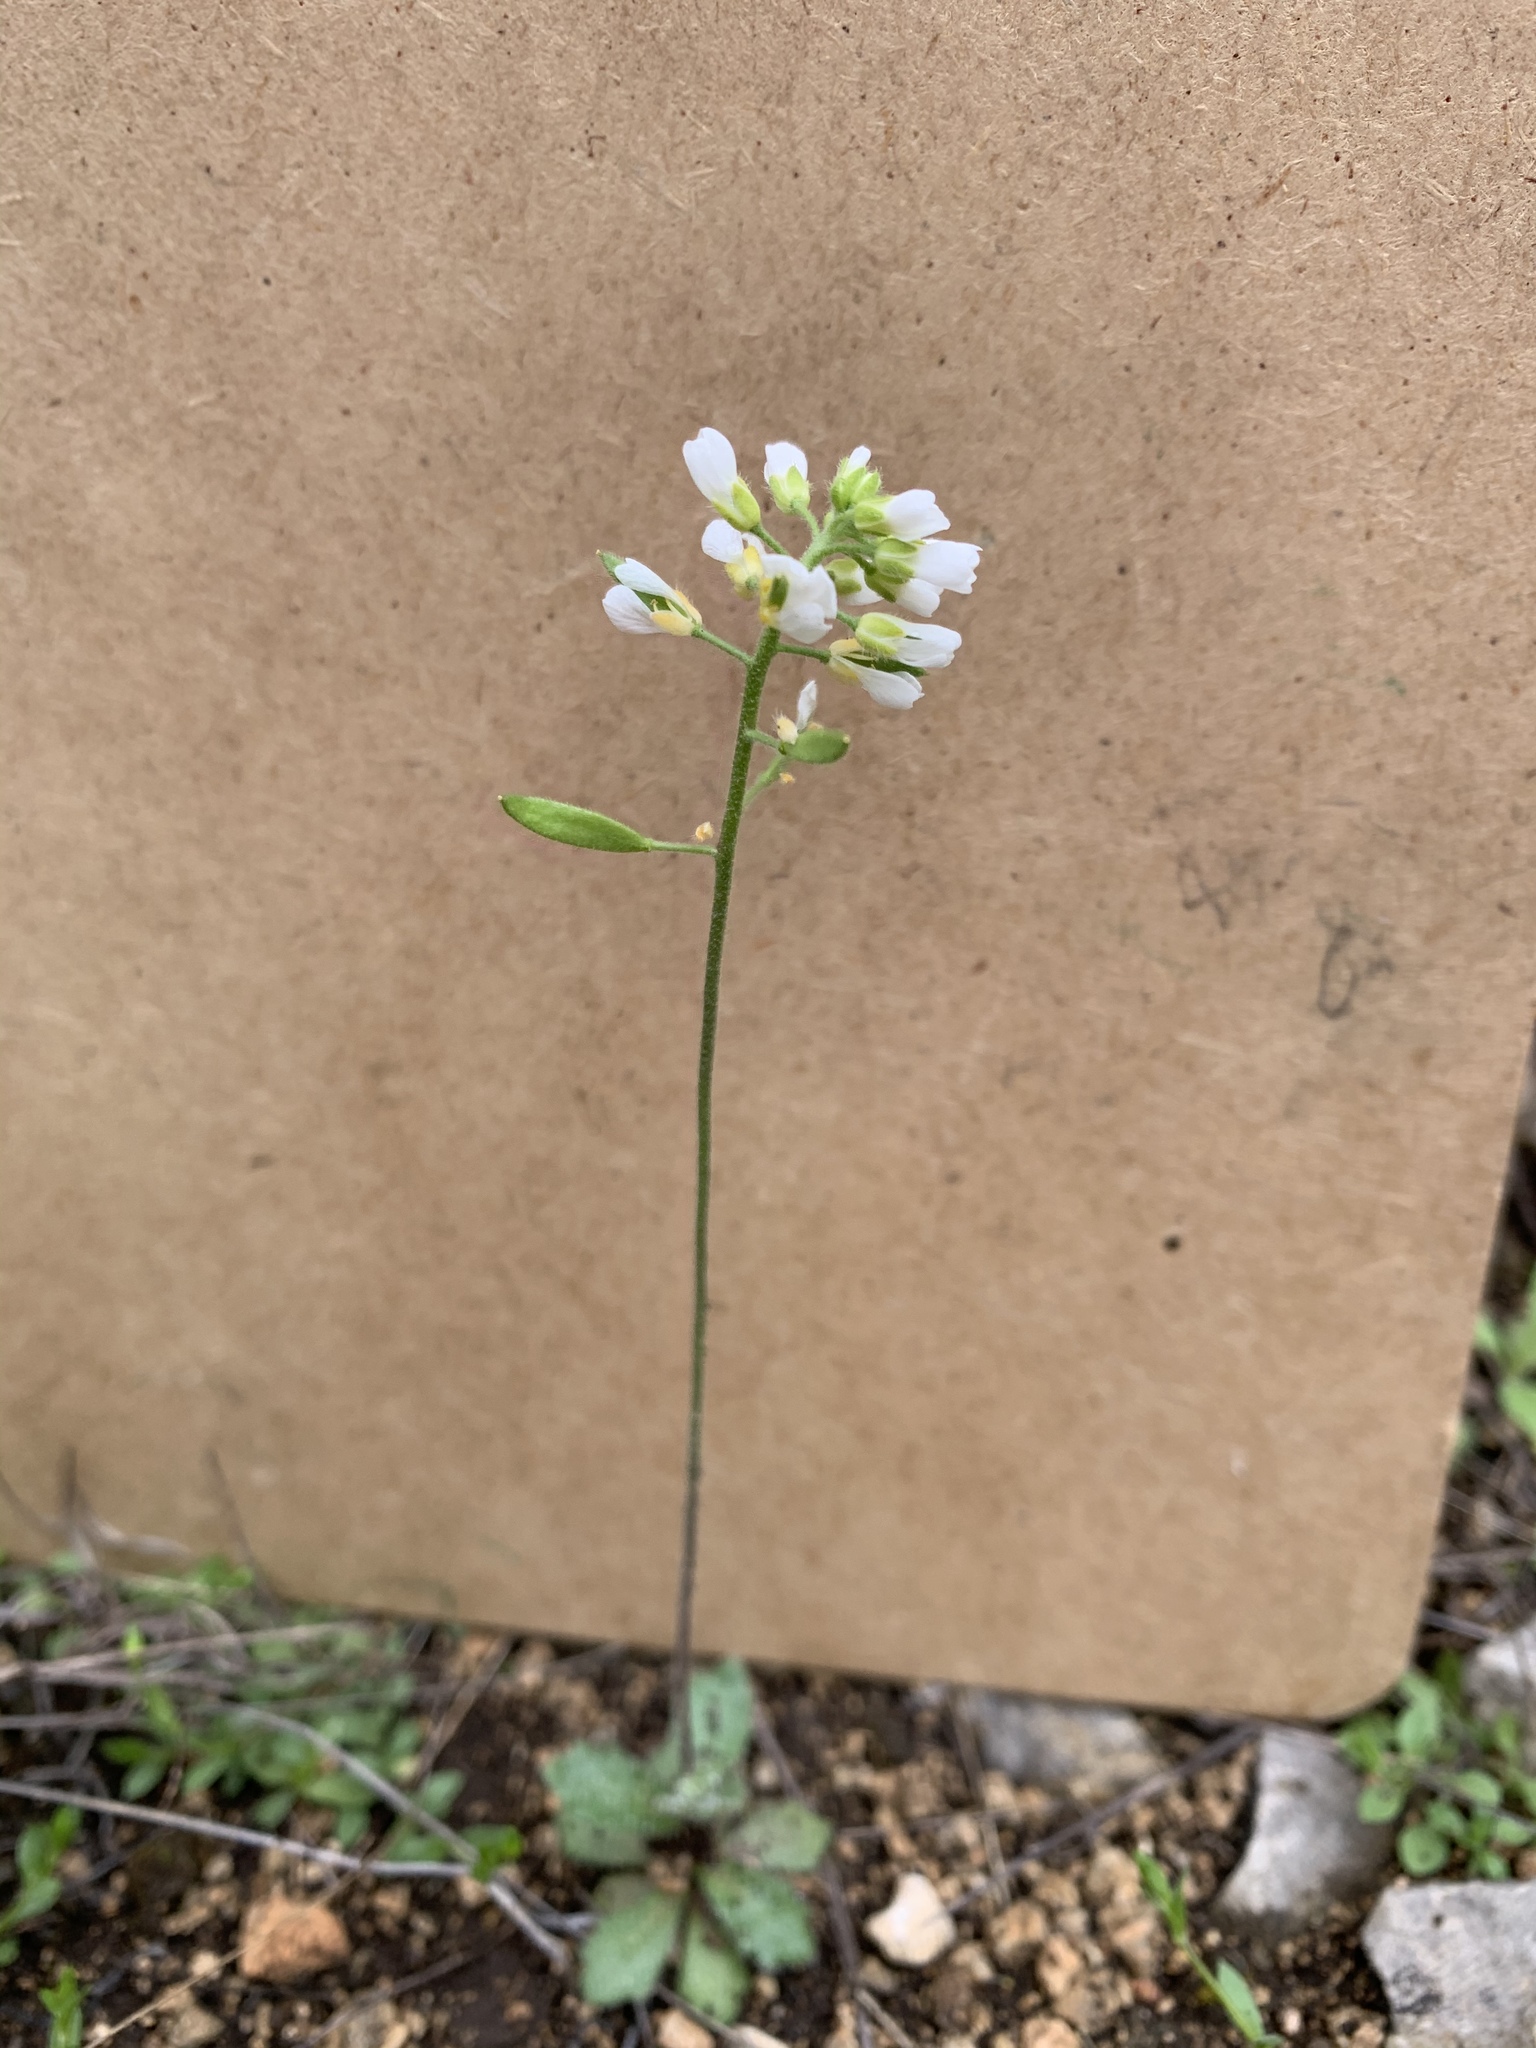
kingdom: Plantae
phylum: Tracheophyta
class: Magnoliopsida
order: Brassicales
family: Brassicaceae
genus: Tomostima
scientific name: Tomostima cuneifolia
